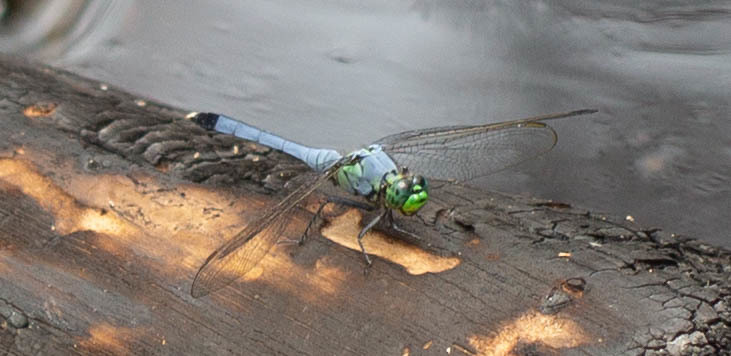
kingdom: Animalia
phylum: Arthropoda
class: Insecta
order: Odonata
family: Libellulidae
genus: Erythemis
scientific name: Erythemis simplicicollis
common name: Eastern pondhawk
